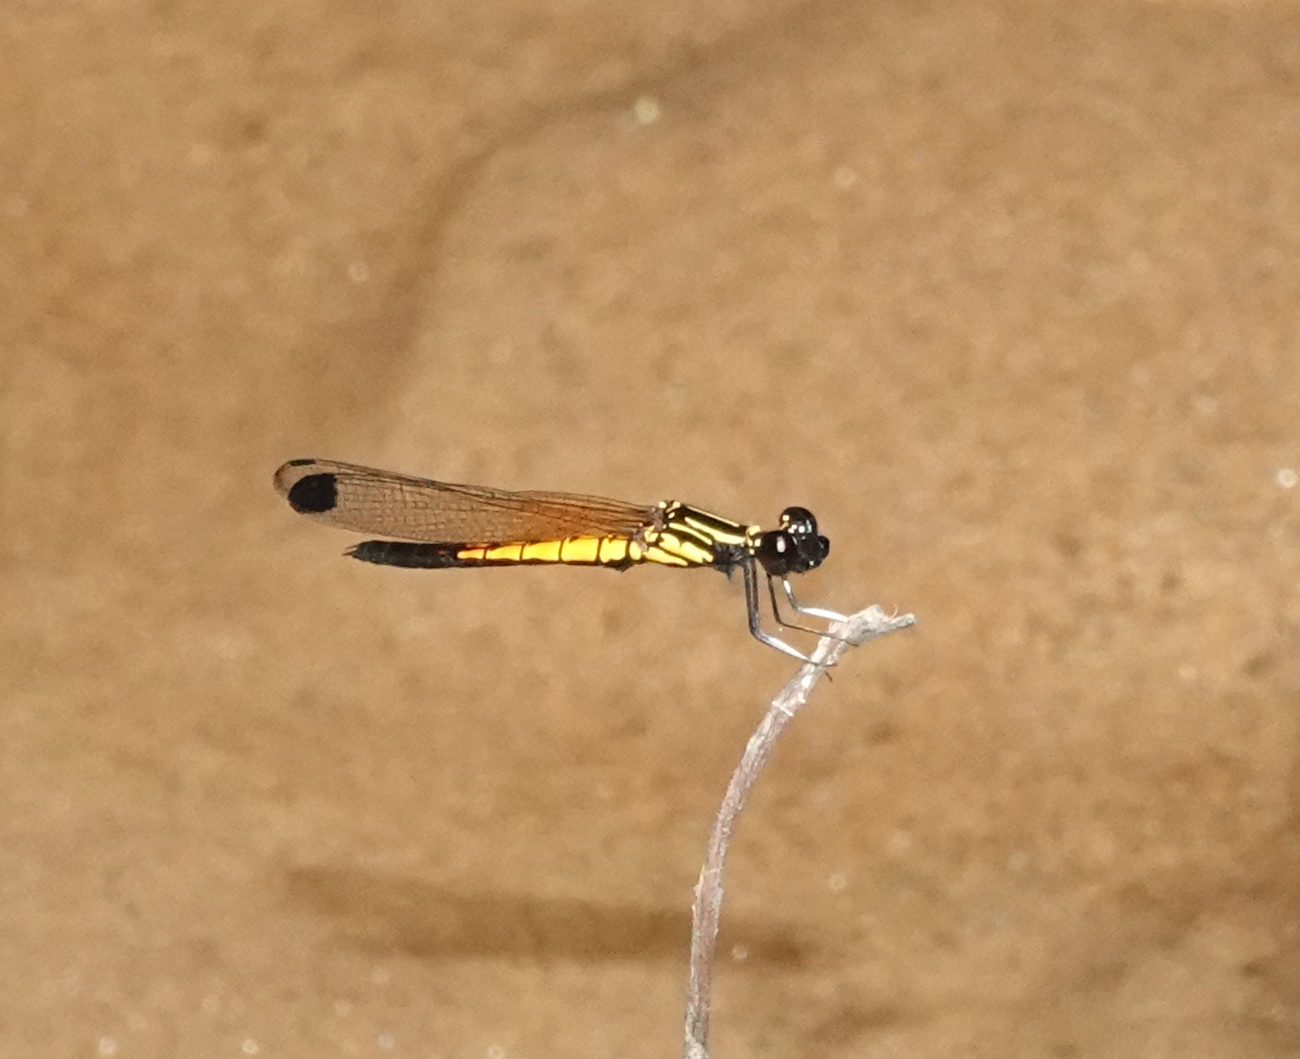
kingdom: Animalia
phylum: Arthropoda
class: Insecta
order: Odonata
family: Chlorocyphidae
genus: Libellago
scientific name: Libellago lineata
